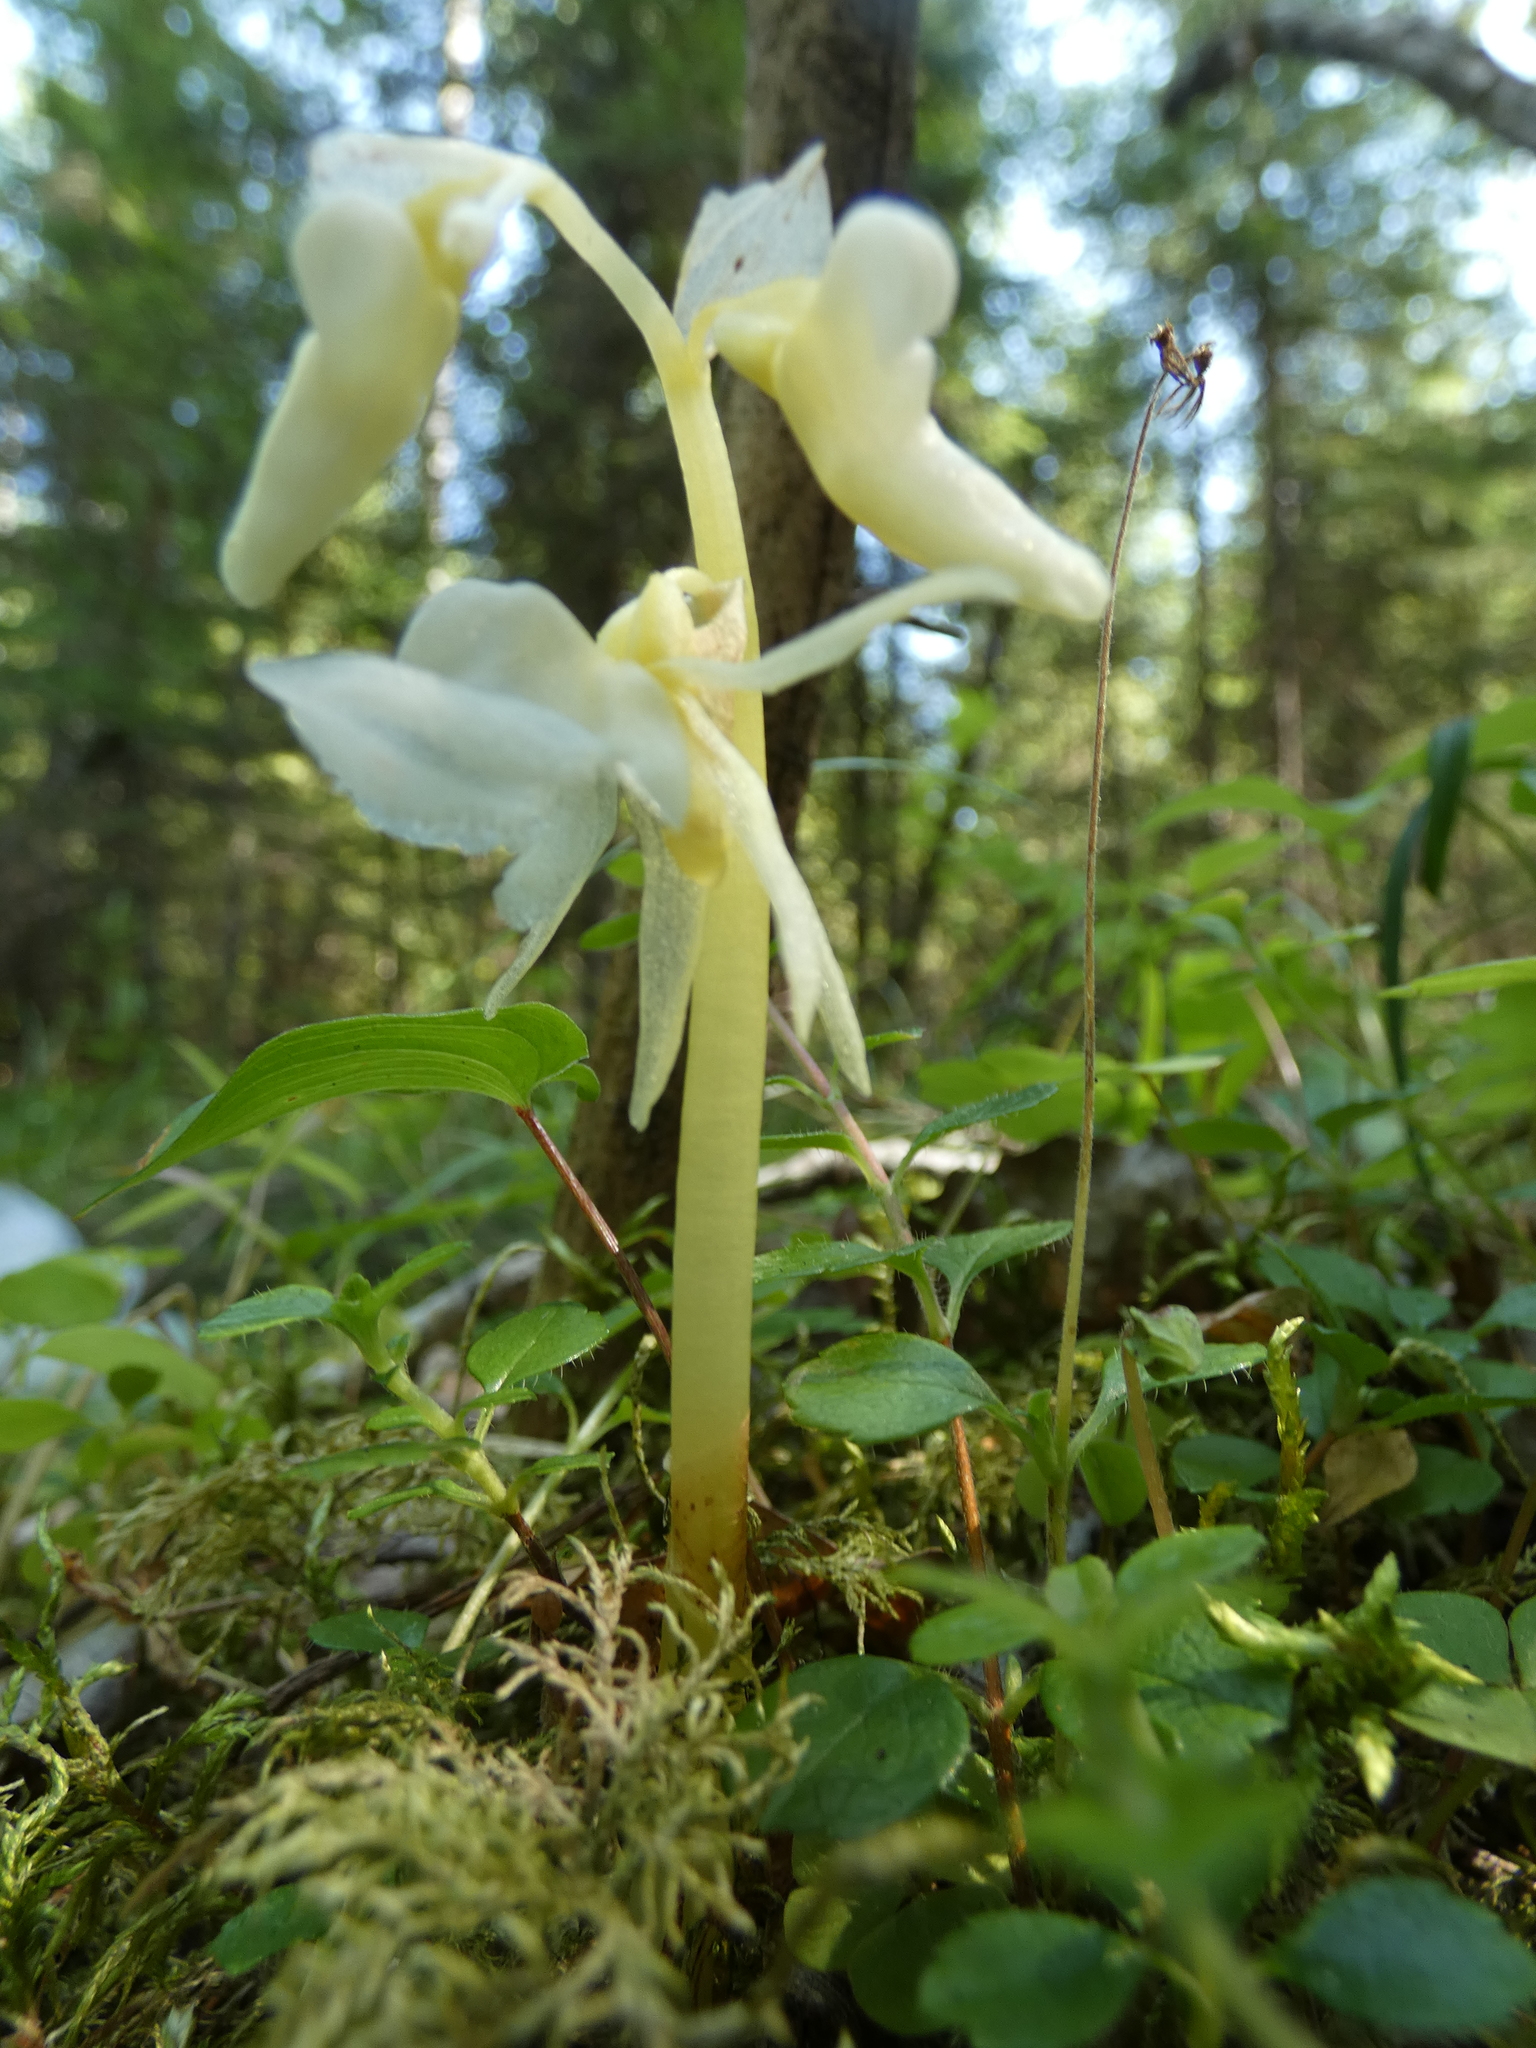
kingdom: Plantae
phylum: Tracheophyta
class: Liliopsida
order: Asparagales
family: Orchidaceae
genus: Epipogium
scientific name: Epipogium aphyllum
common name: Ghost orchid
